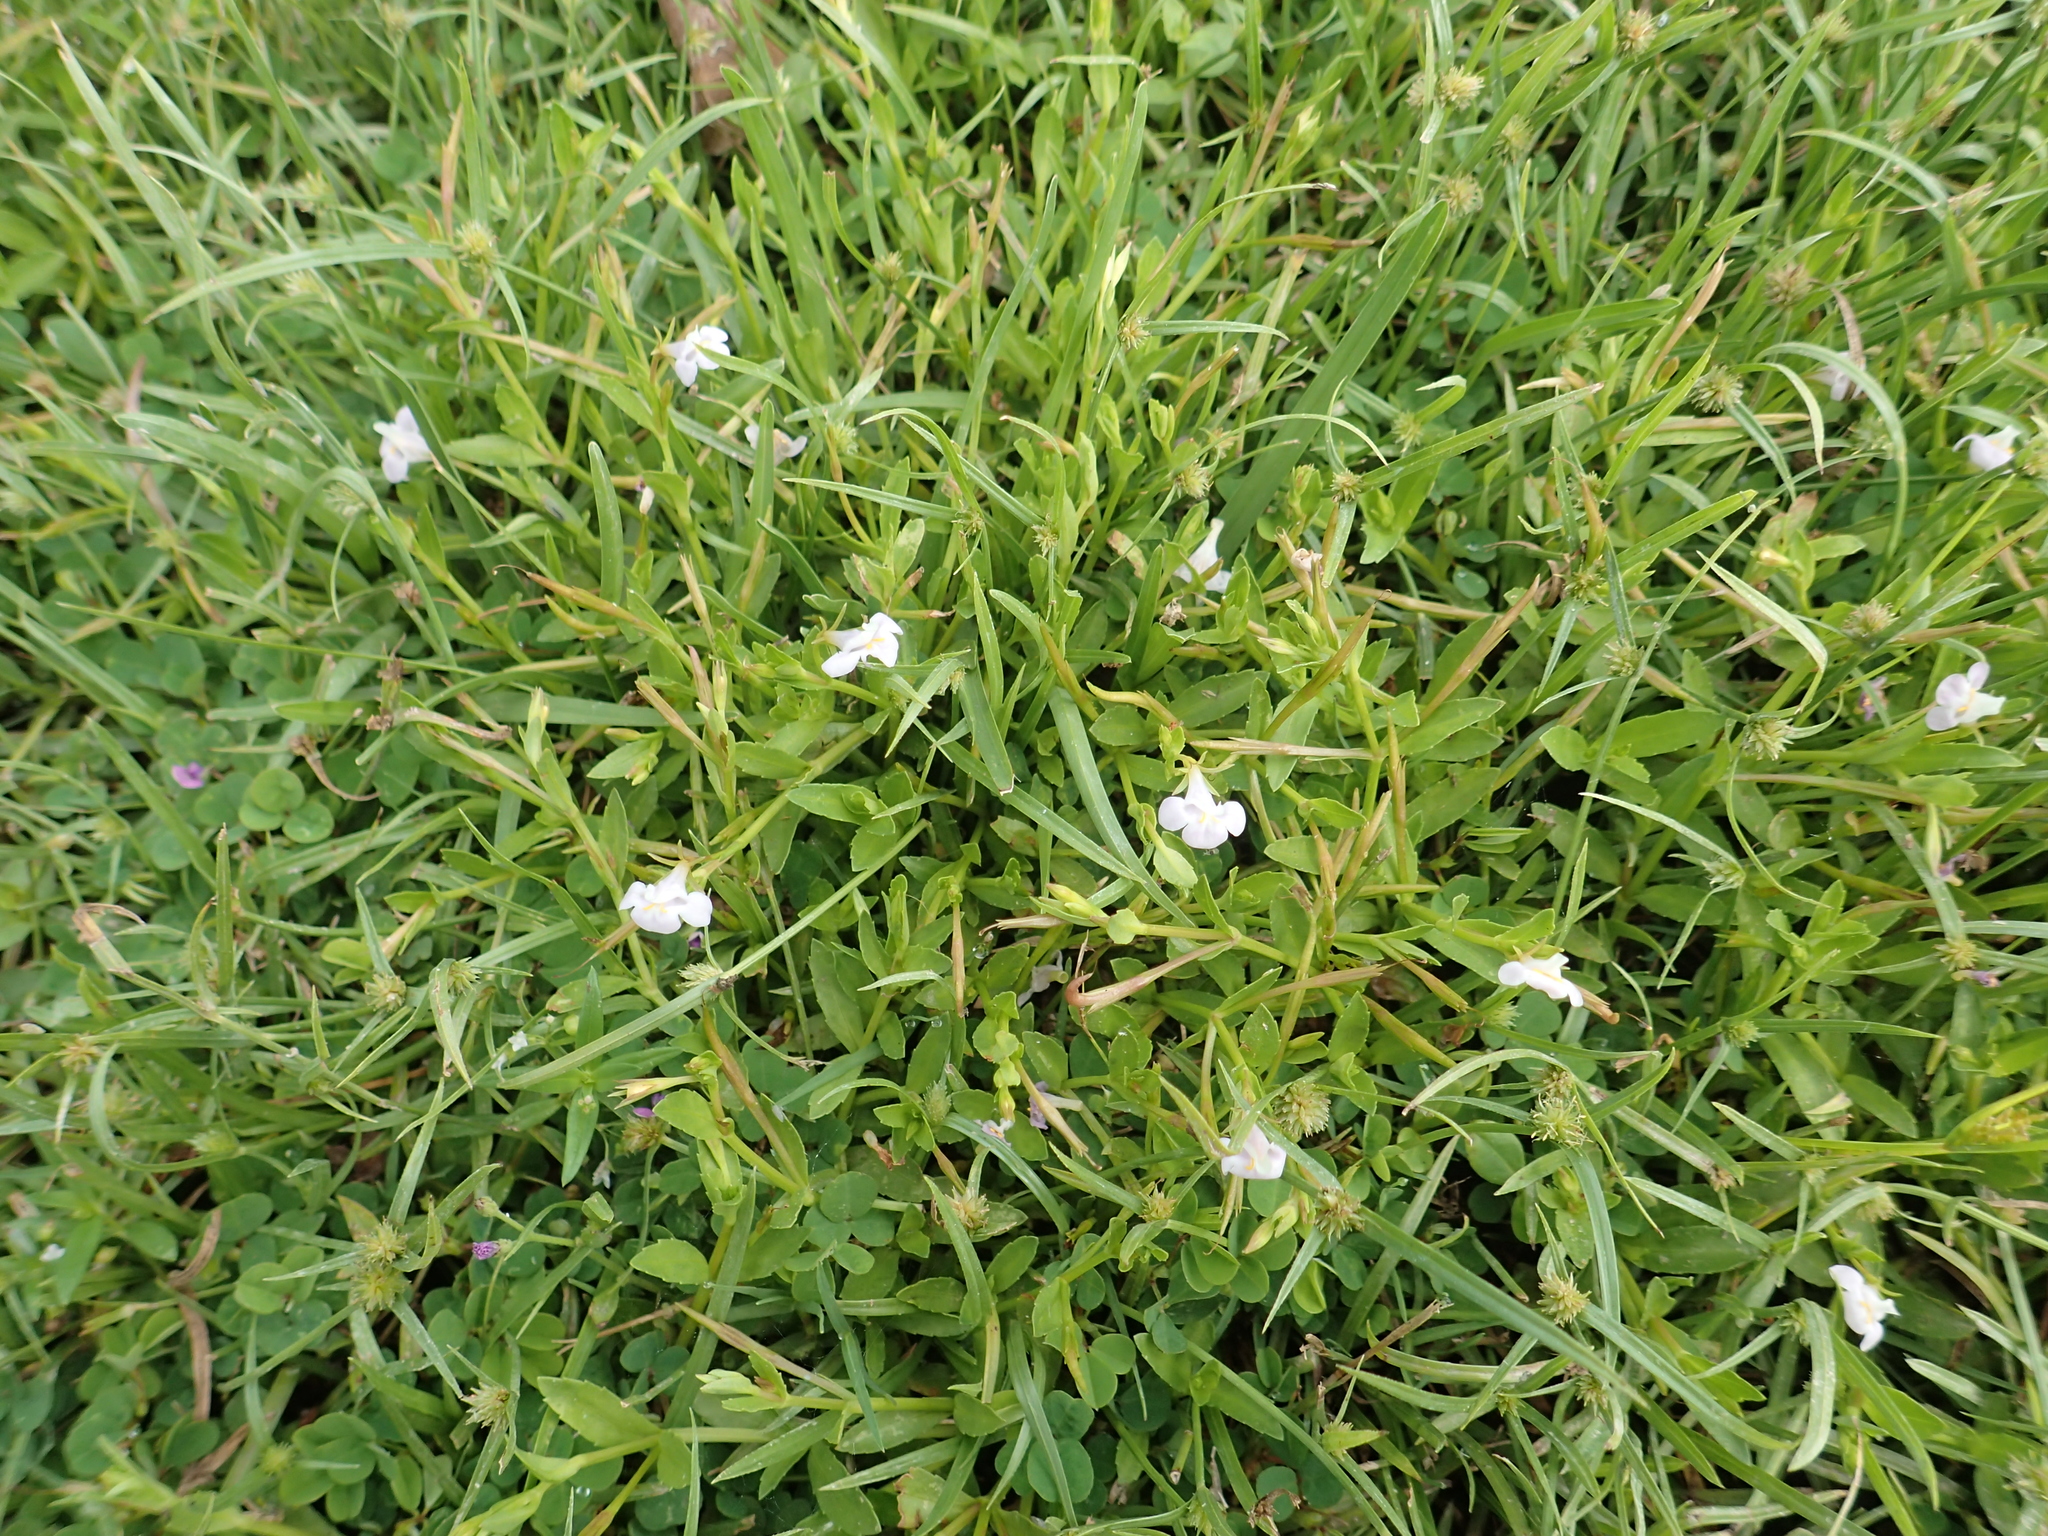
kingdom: Plantae
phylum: Tracheophyta
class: Magnoliopsida
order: Lamiales
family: Linderniaceae
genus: Bonnaya
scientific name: Bonnaya antipoda
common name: Sparrow false pimpernel
